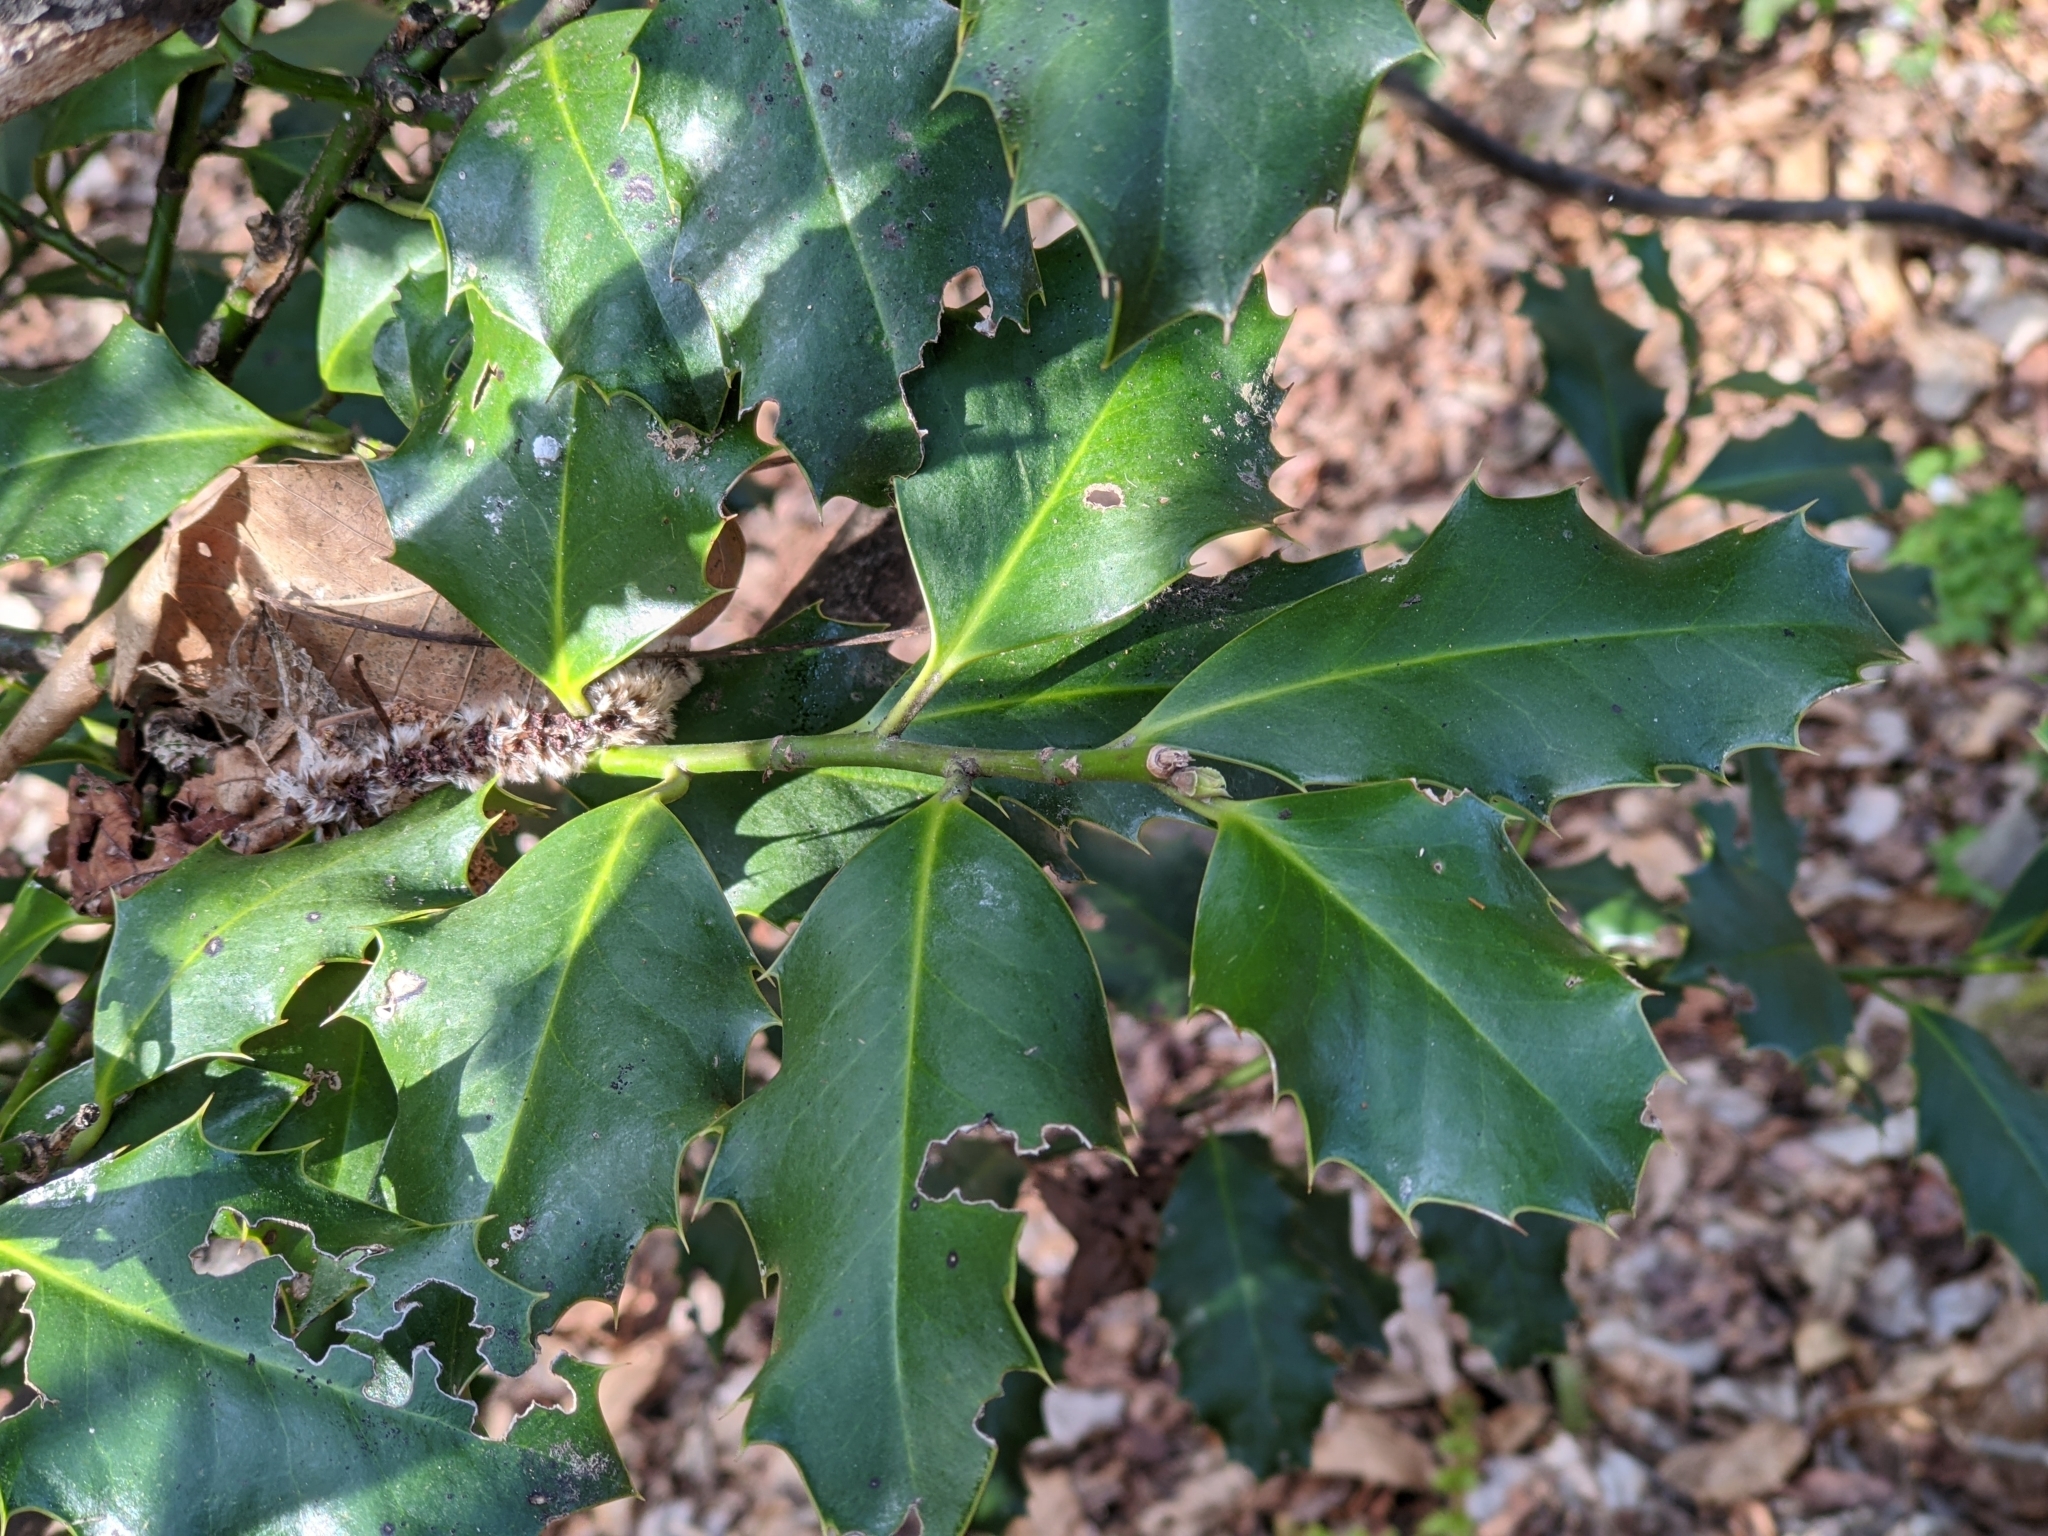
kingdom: Plantae
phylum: Tracheophyta
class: Magnoliopsida
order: Aquifoliales
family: Aquifoliaceae
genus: Ilex
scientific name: Ilex aquifolium
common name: English holly
